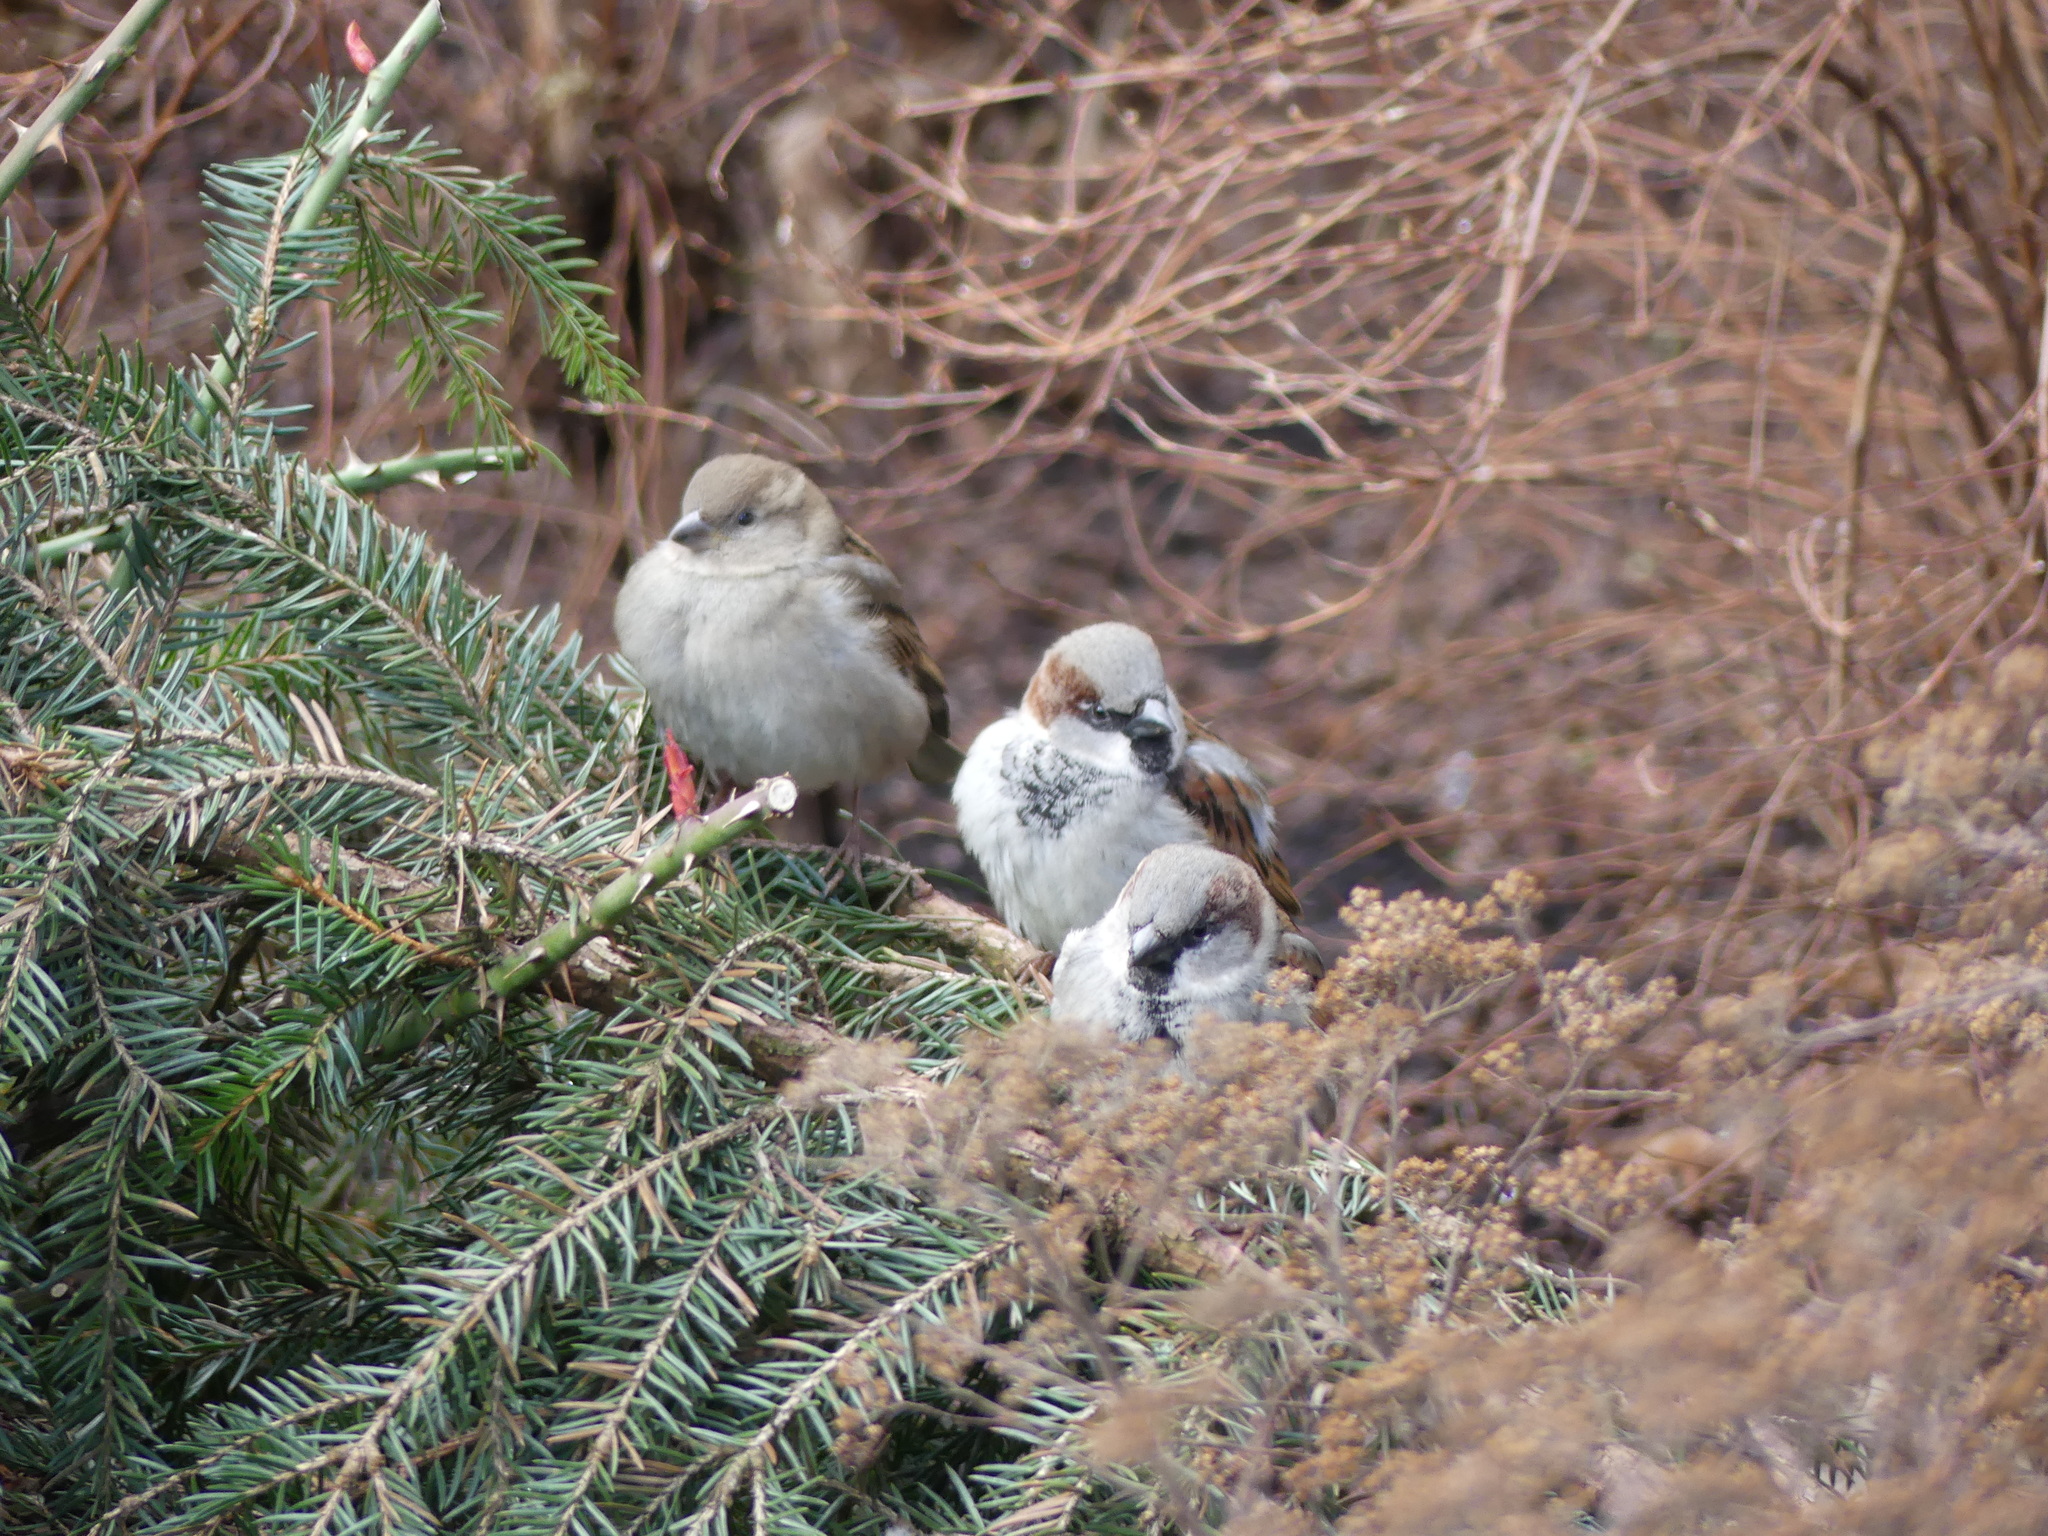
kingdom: Animalia
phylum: Chordata
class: Aves
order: Passeriformes
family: Passeridae
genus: Passer
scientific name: Passer domesticus
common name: House sparrow
